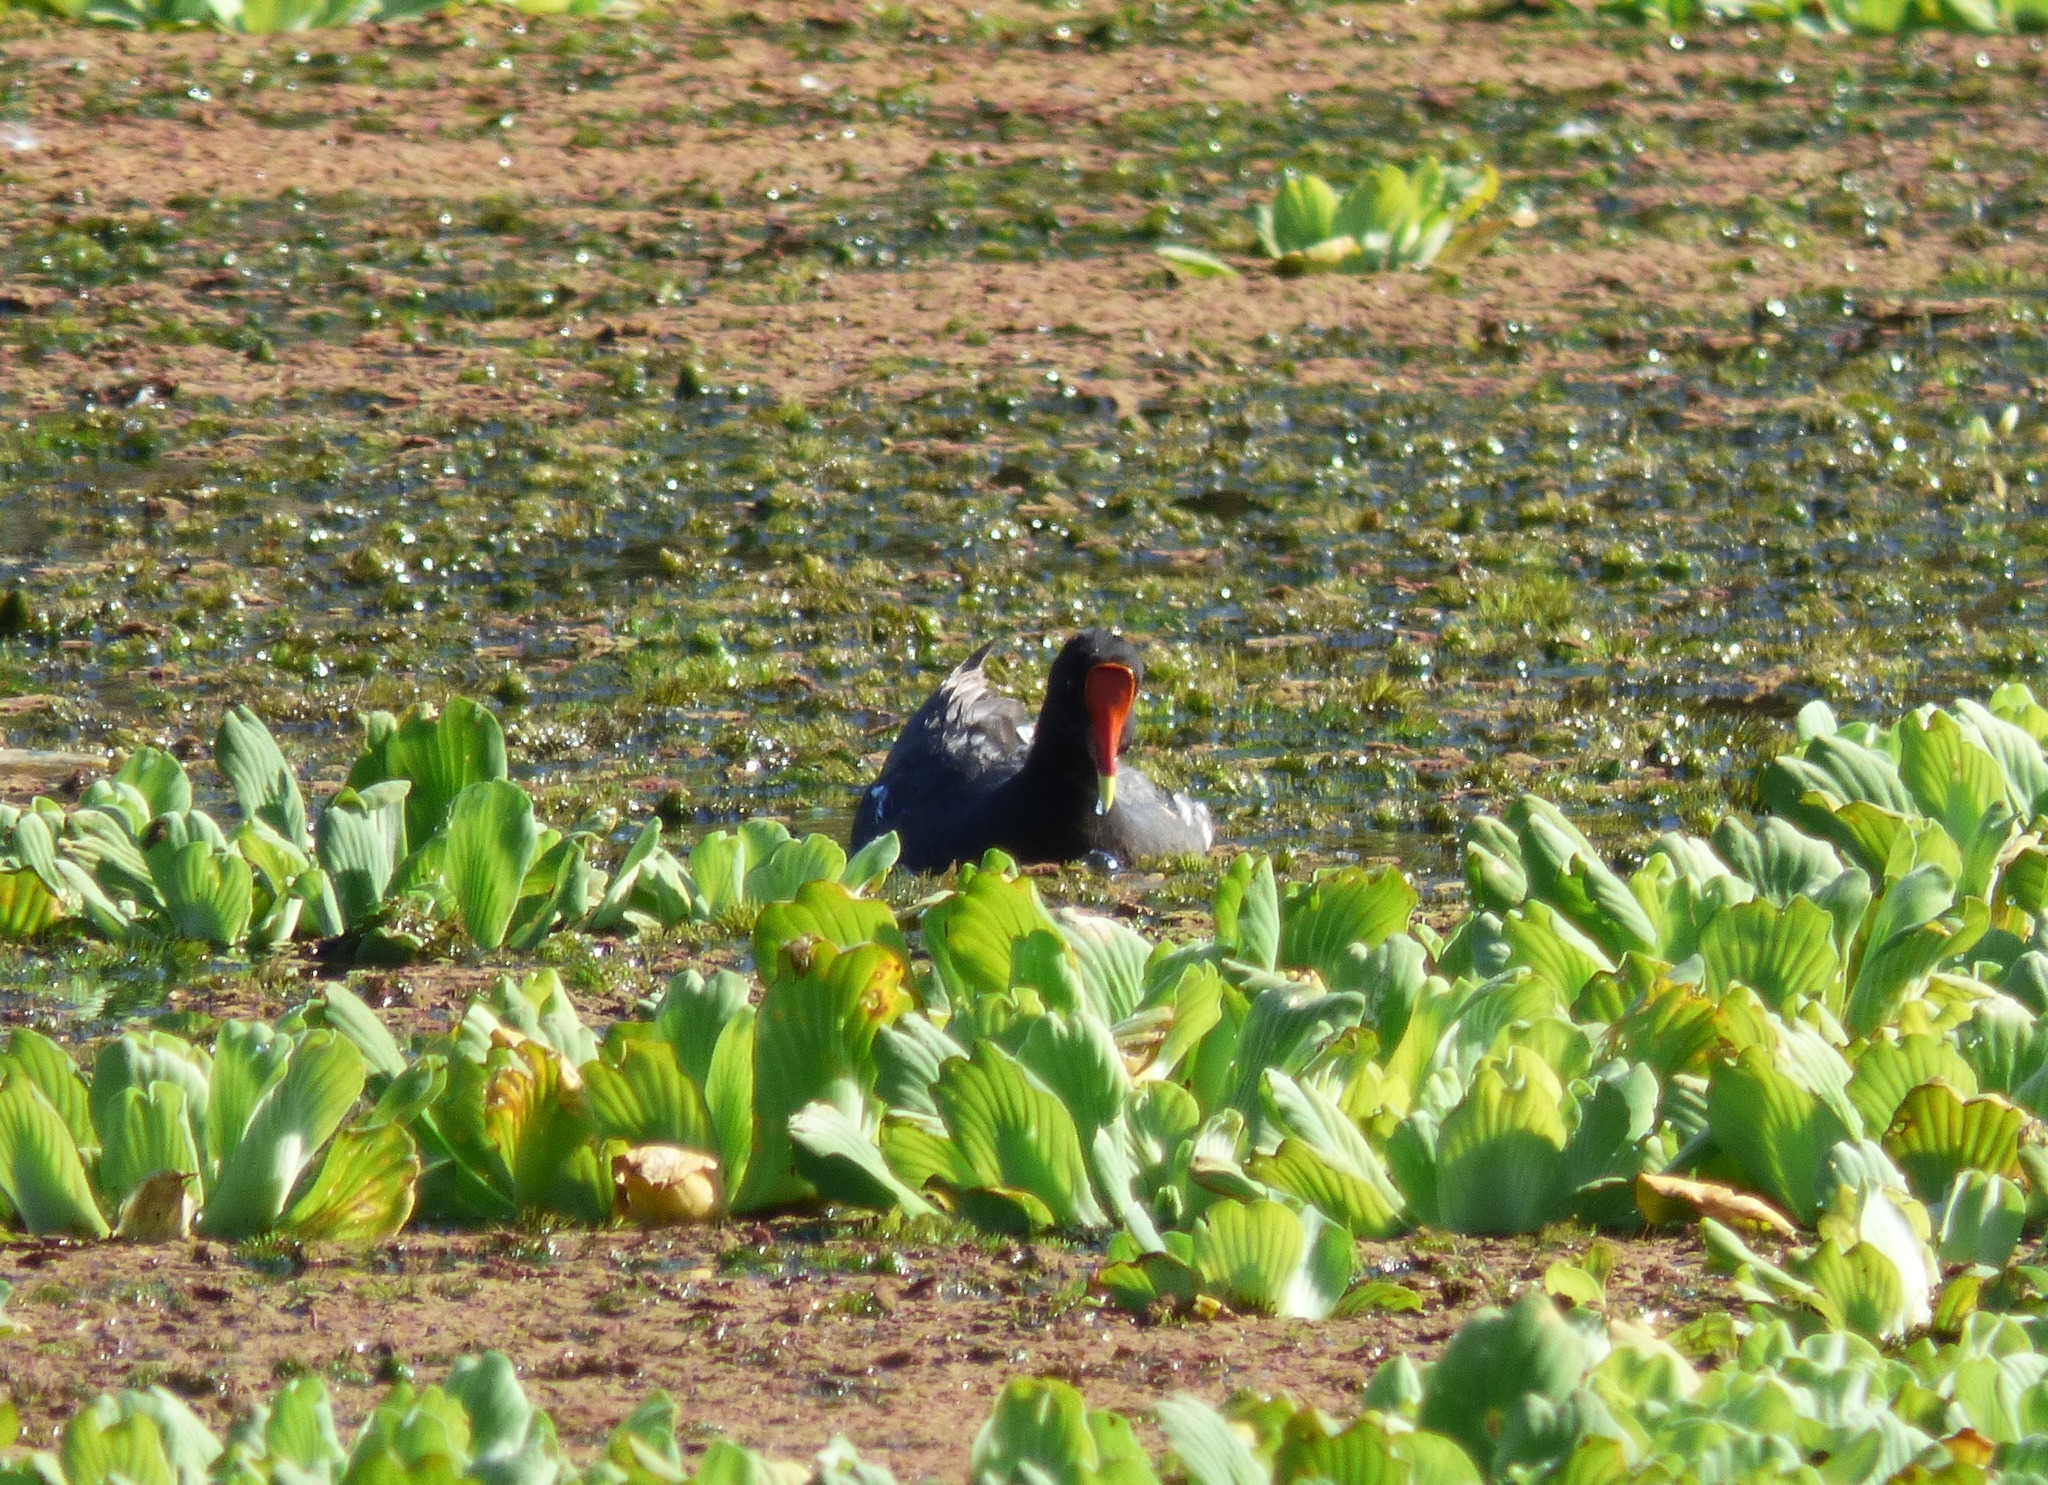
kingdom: Animalia
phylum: Chordata
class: Aves
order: Gruiformes
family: Rallidae
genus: Gallinula
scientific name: Gallinula chloropus
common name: Common moorhen
